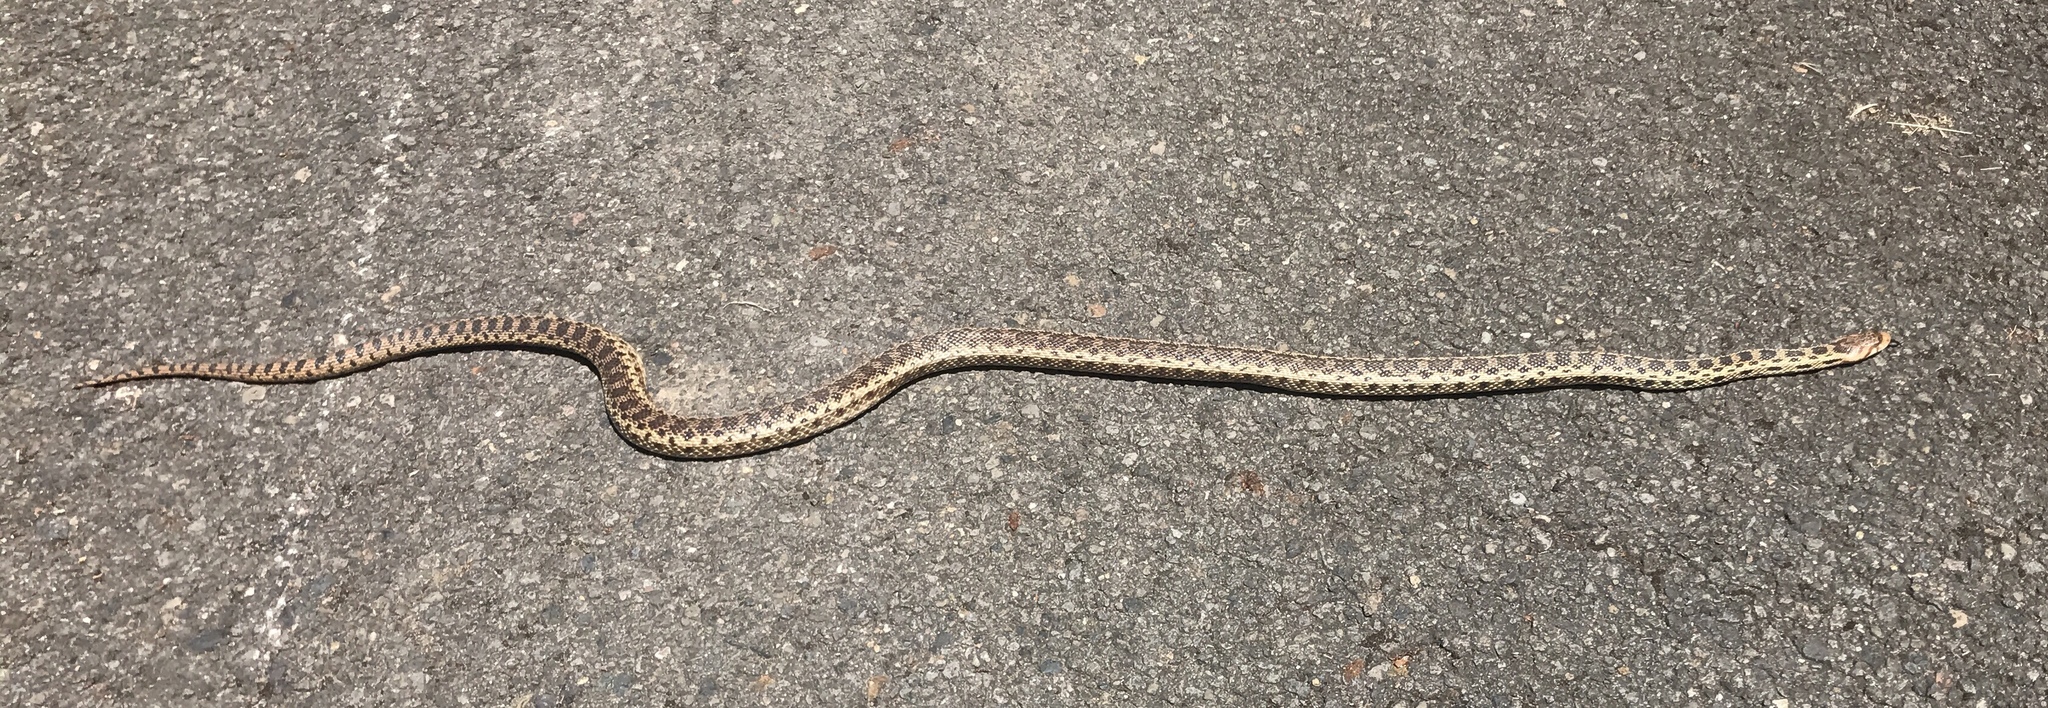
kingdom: Animalia
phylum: Chordata
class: Squamata
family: Colubridae
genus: Pituophis
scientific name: Pituophis catenifer
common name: Gopher snake
